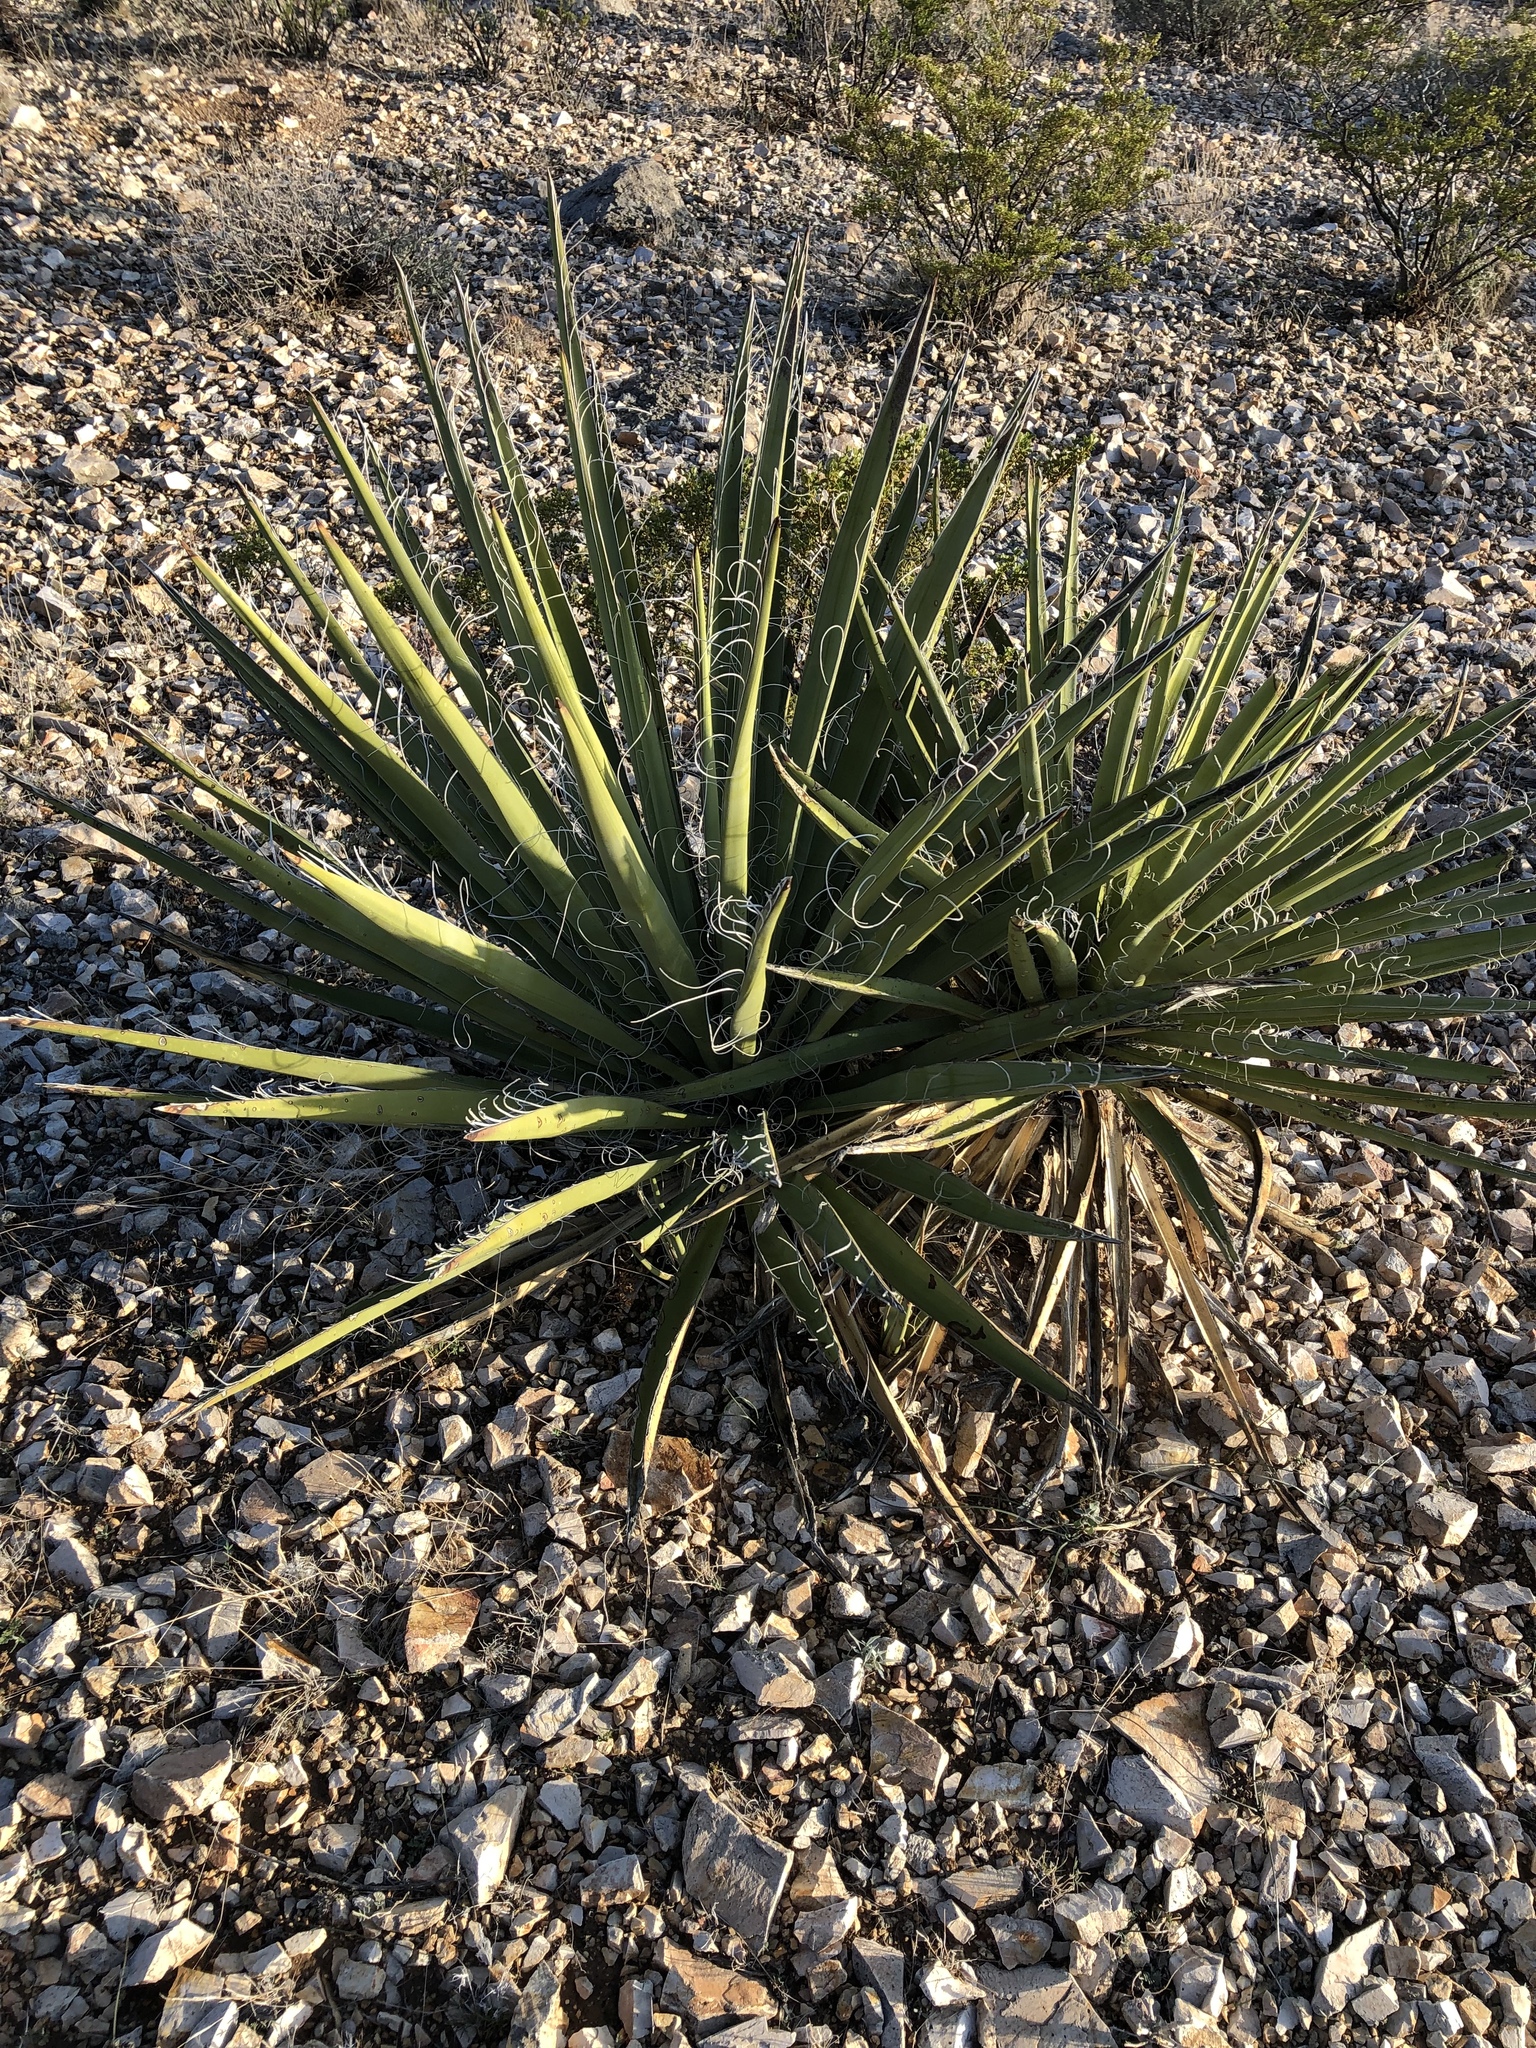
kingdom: Plantae
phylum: Tracheophyta
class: Liliopsida
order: Asparagales
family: Asparagaceae
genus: Yucca
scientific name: Yucca baccata
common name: Banana yucca
